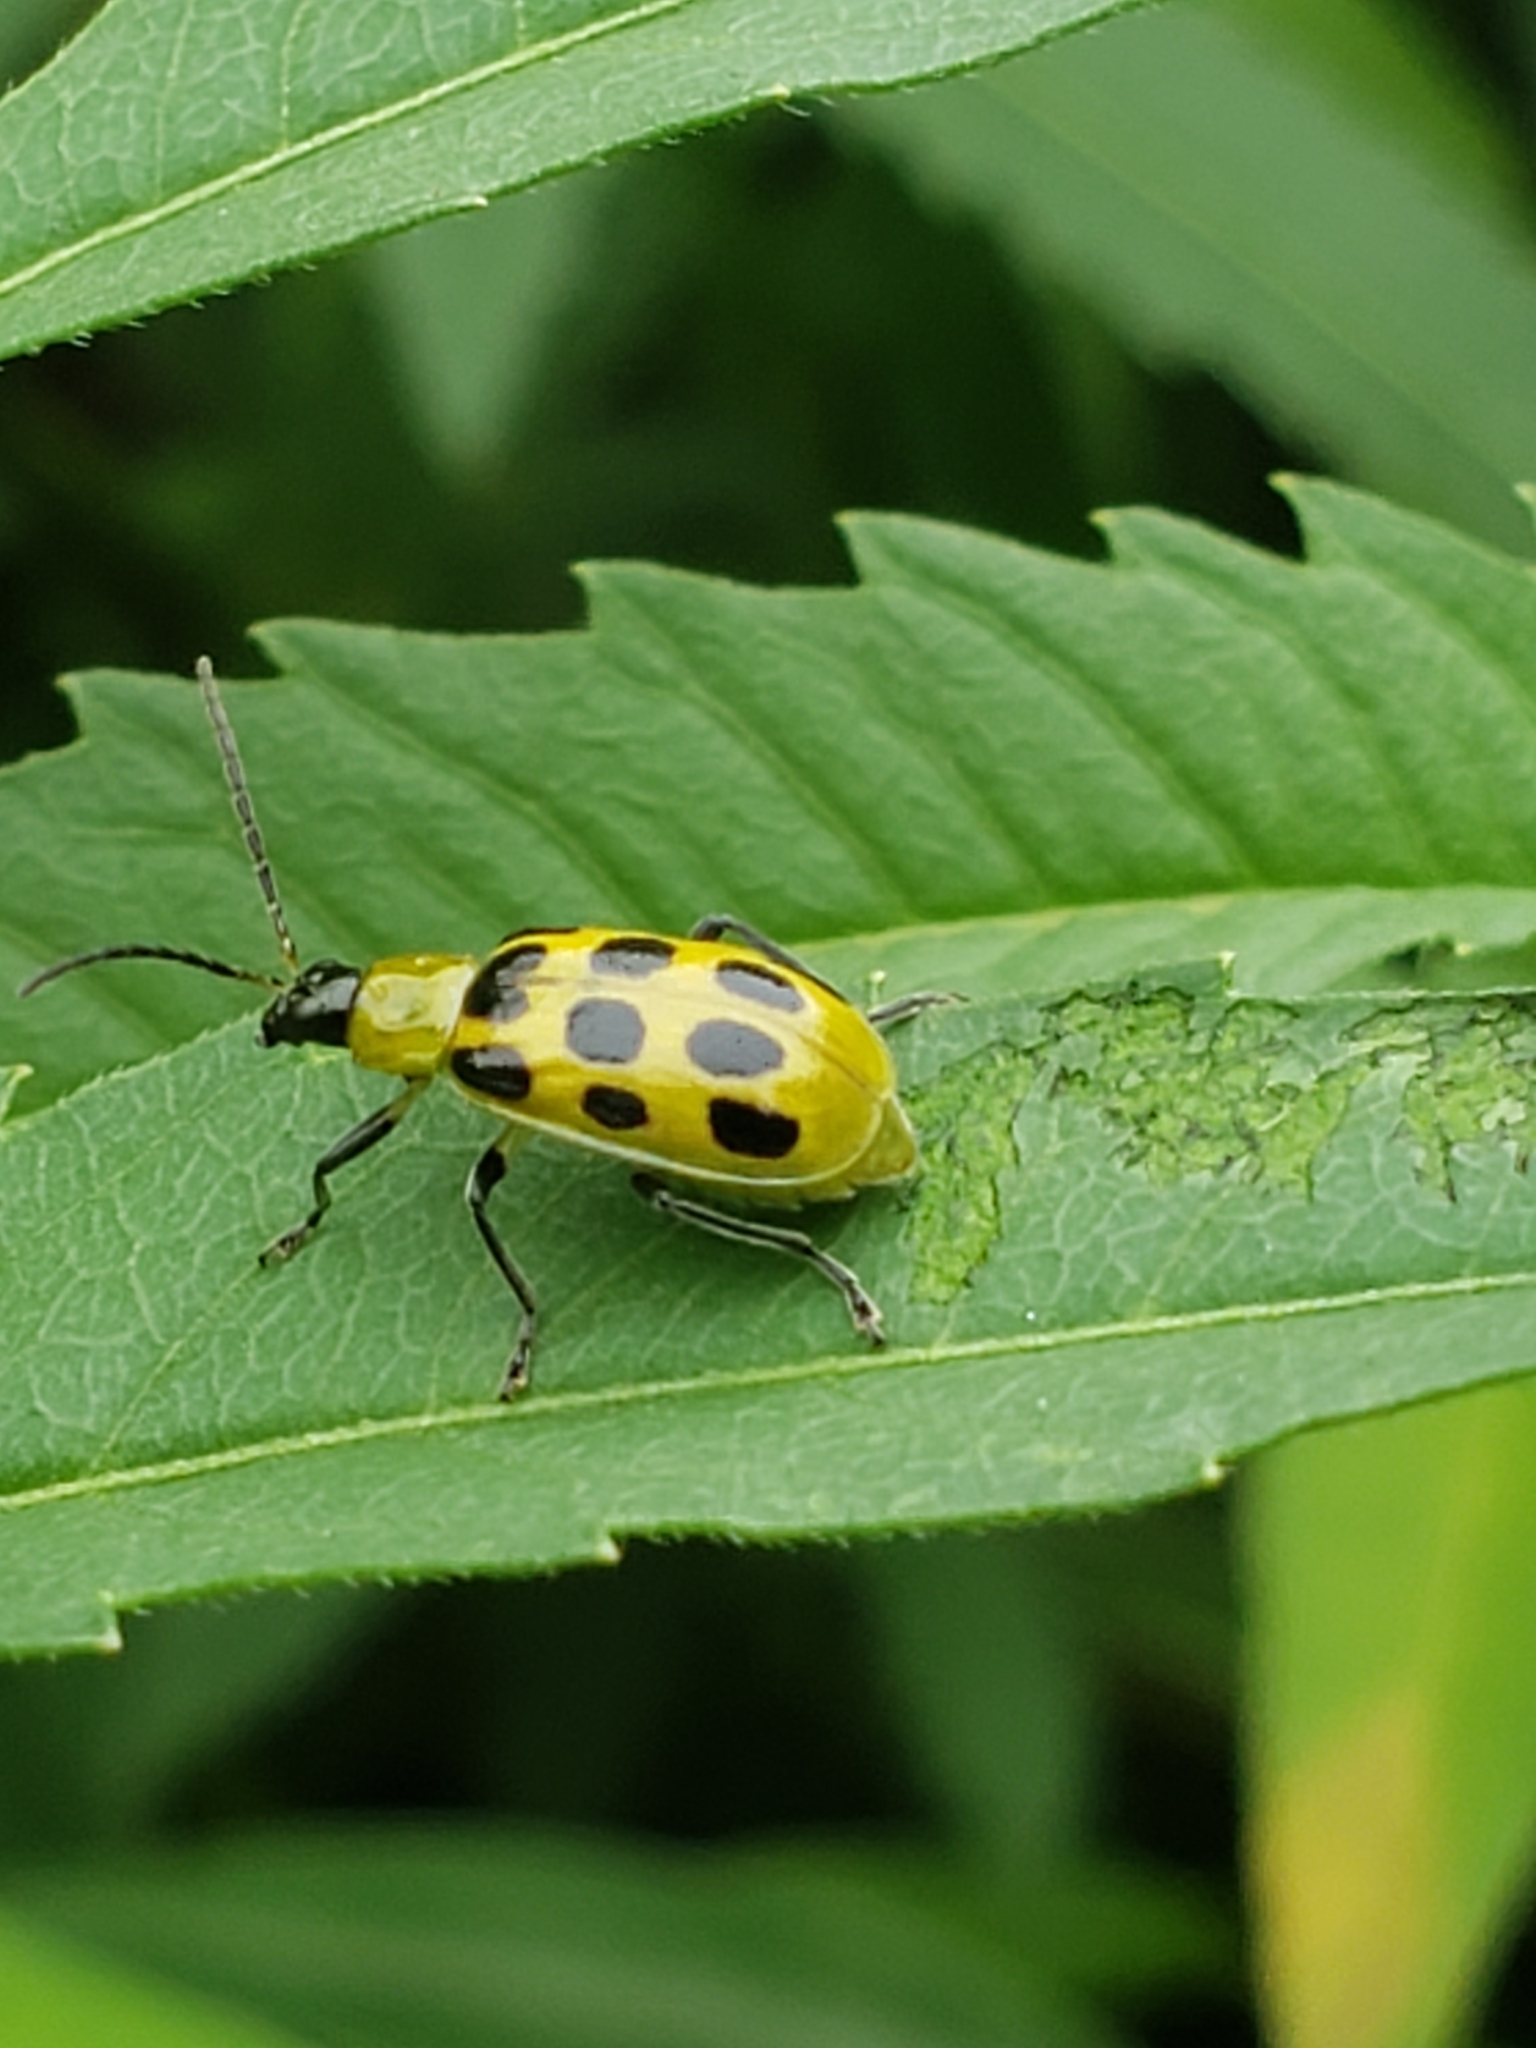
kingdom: Animalia
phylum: Arthropoda
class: Insecta
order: Coleoptera
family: Chrysomelidae
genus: Diabrotica
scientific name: Diabrotica undecimpunctata
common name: Spotted cucumber beetle
